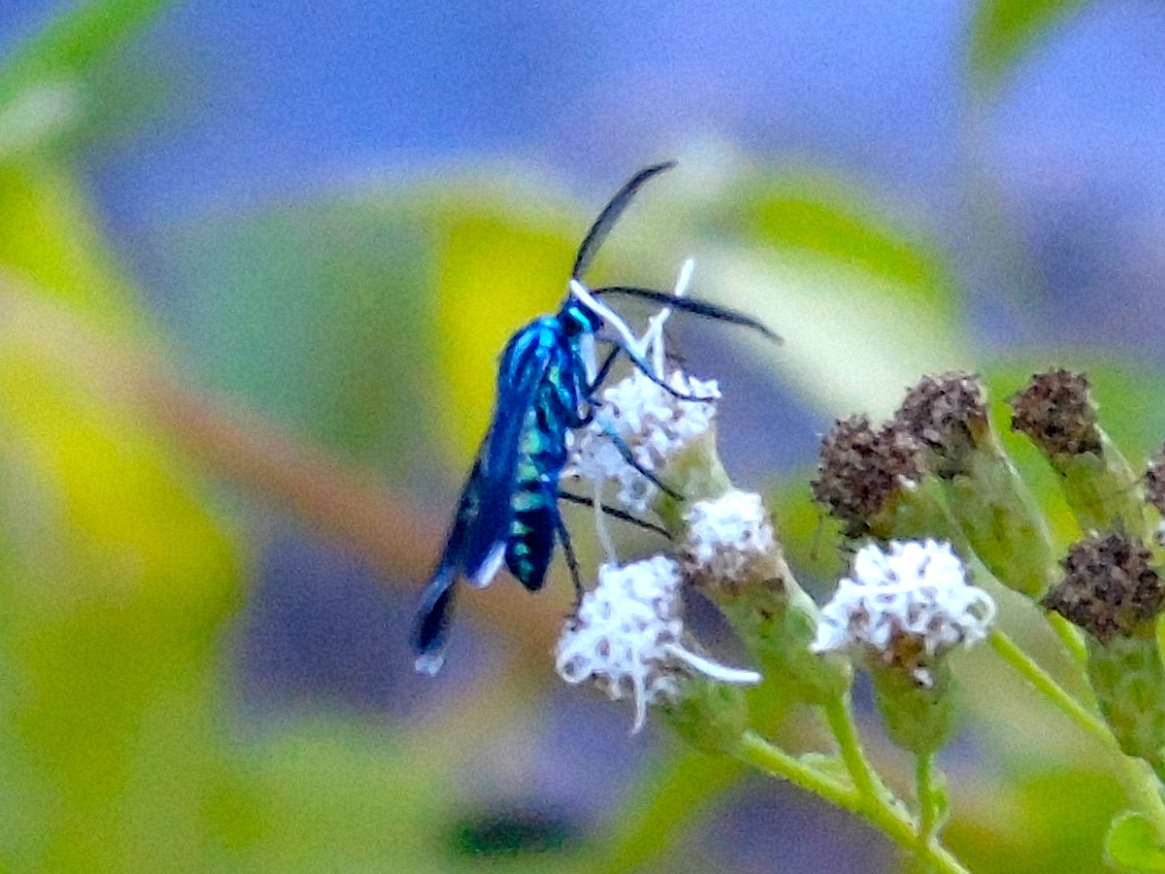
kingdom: Animalia
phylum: Arthropoda
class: Insecta
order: Lepidoptera
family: Erebidae
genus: Uranophora
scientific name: Uranophora leucotela
